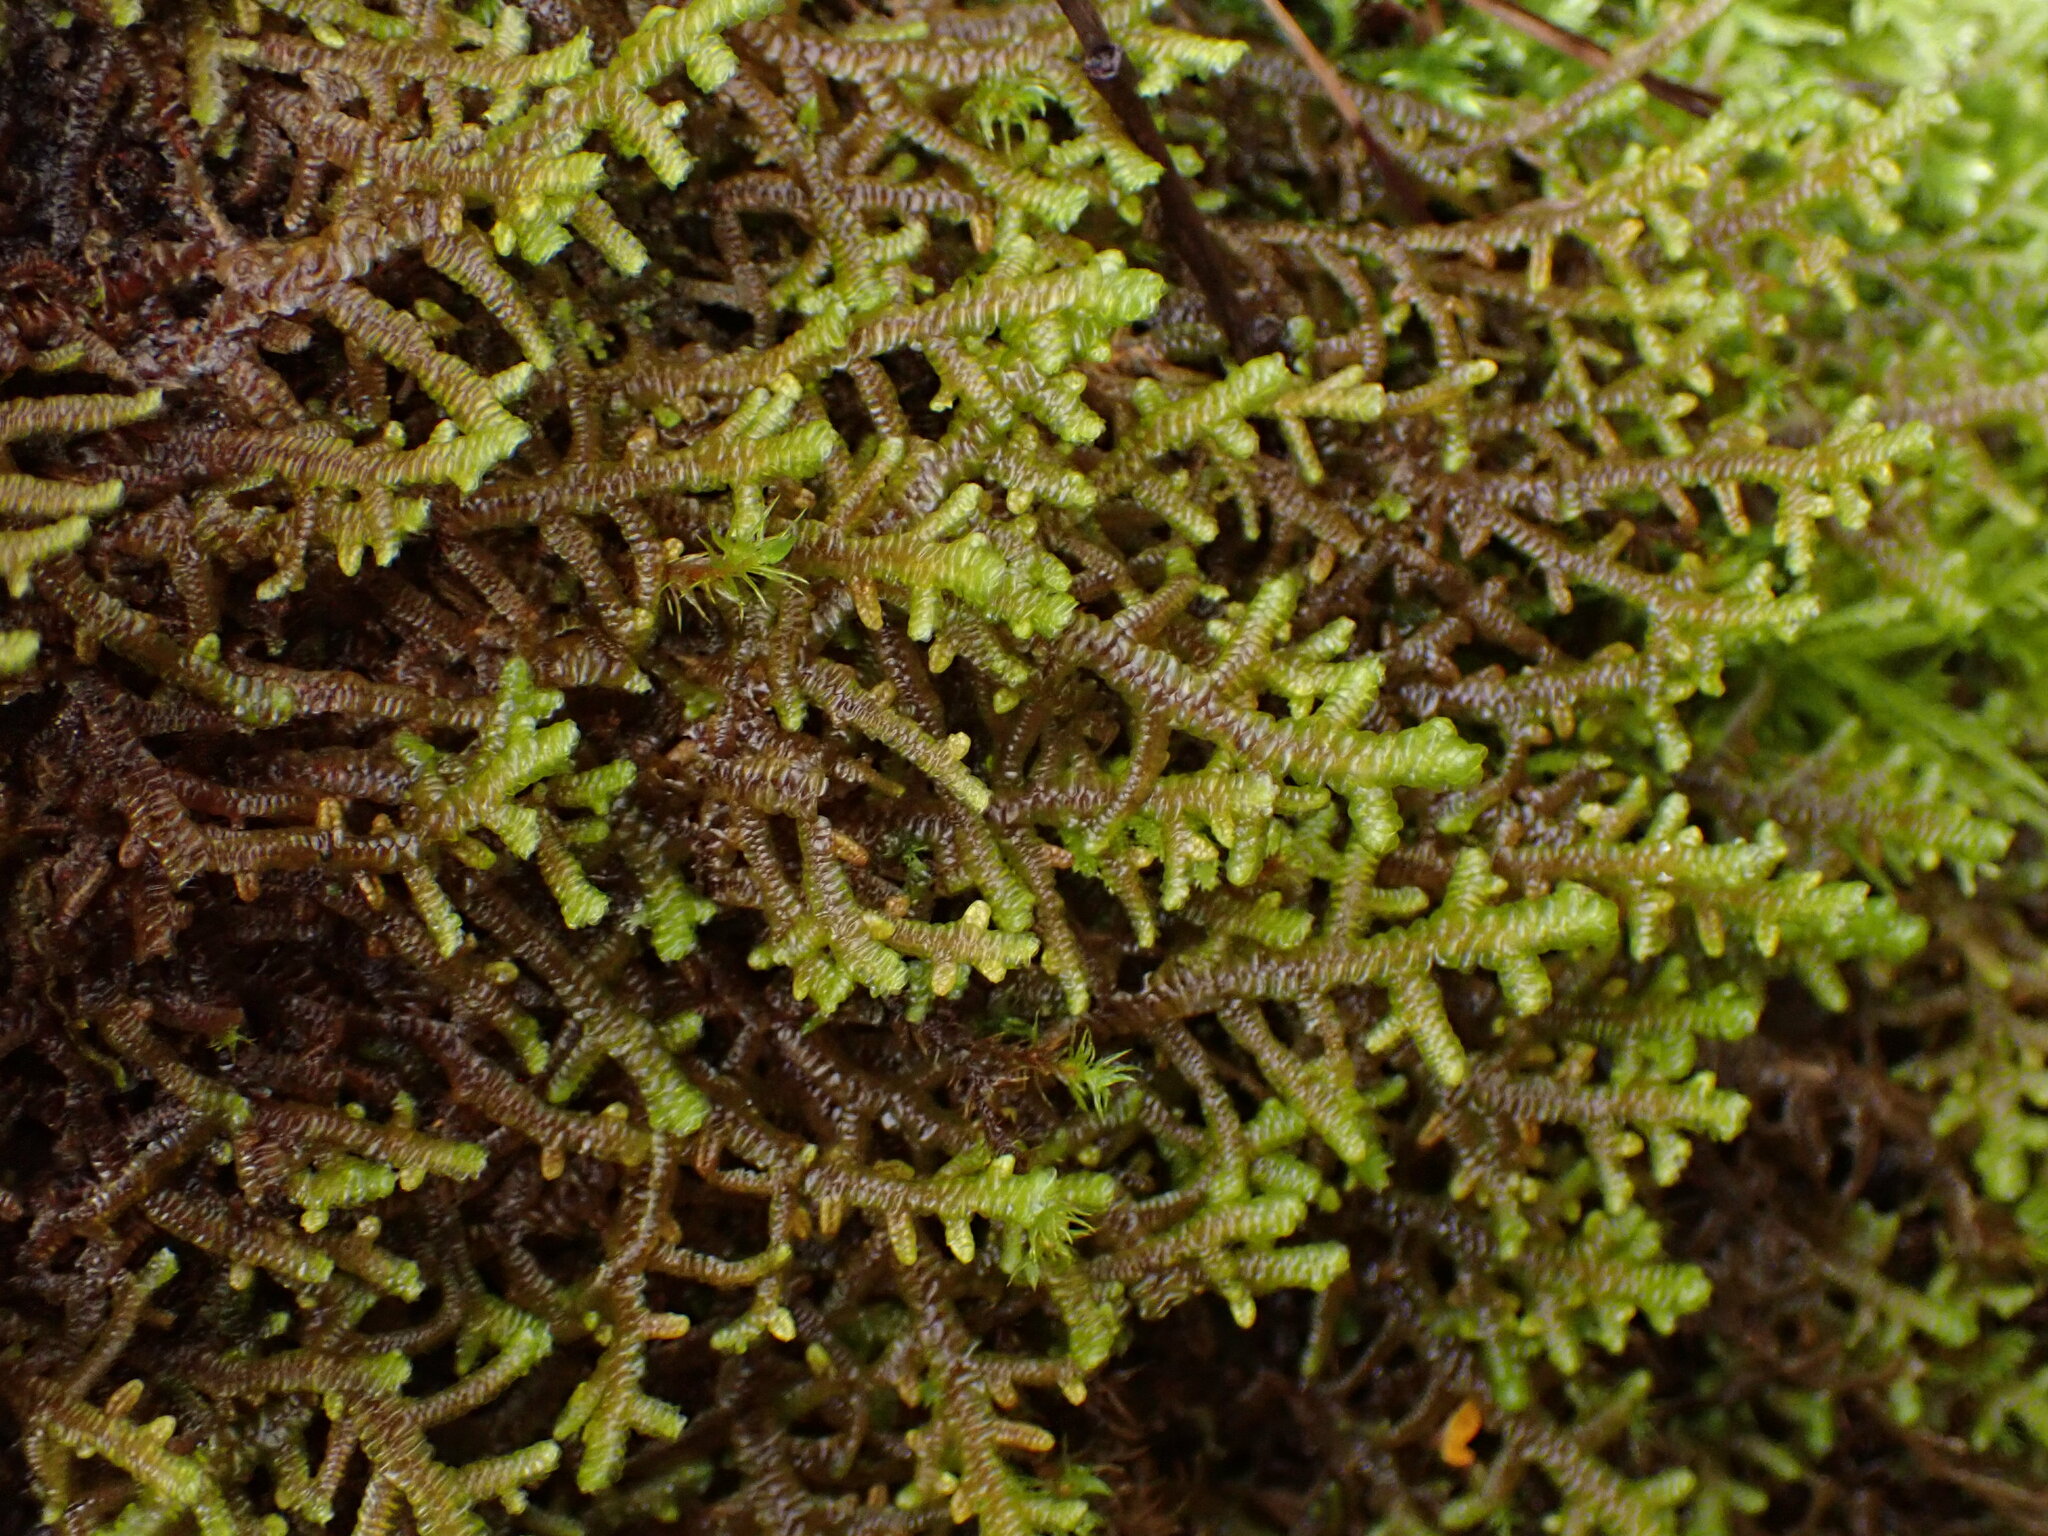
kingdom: Plantae
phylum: Marchantiophyta
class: Jungermanniopsida
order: Porellales
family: Porellaceae
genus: Porella
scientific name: Porella navicularis
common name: Tree ruffle liverwort
